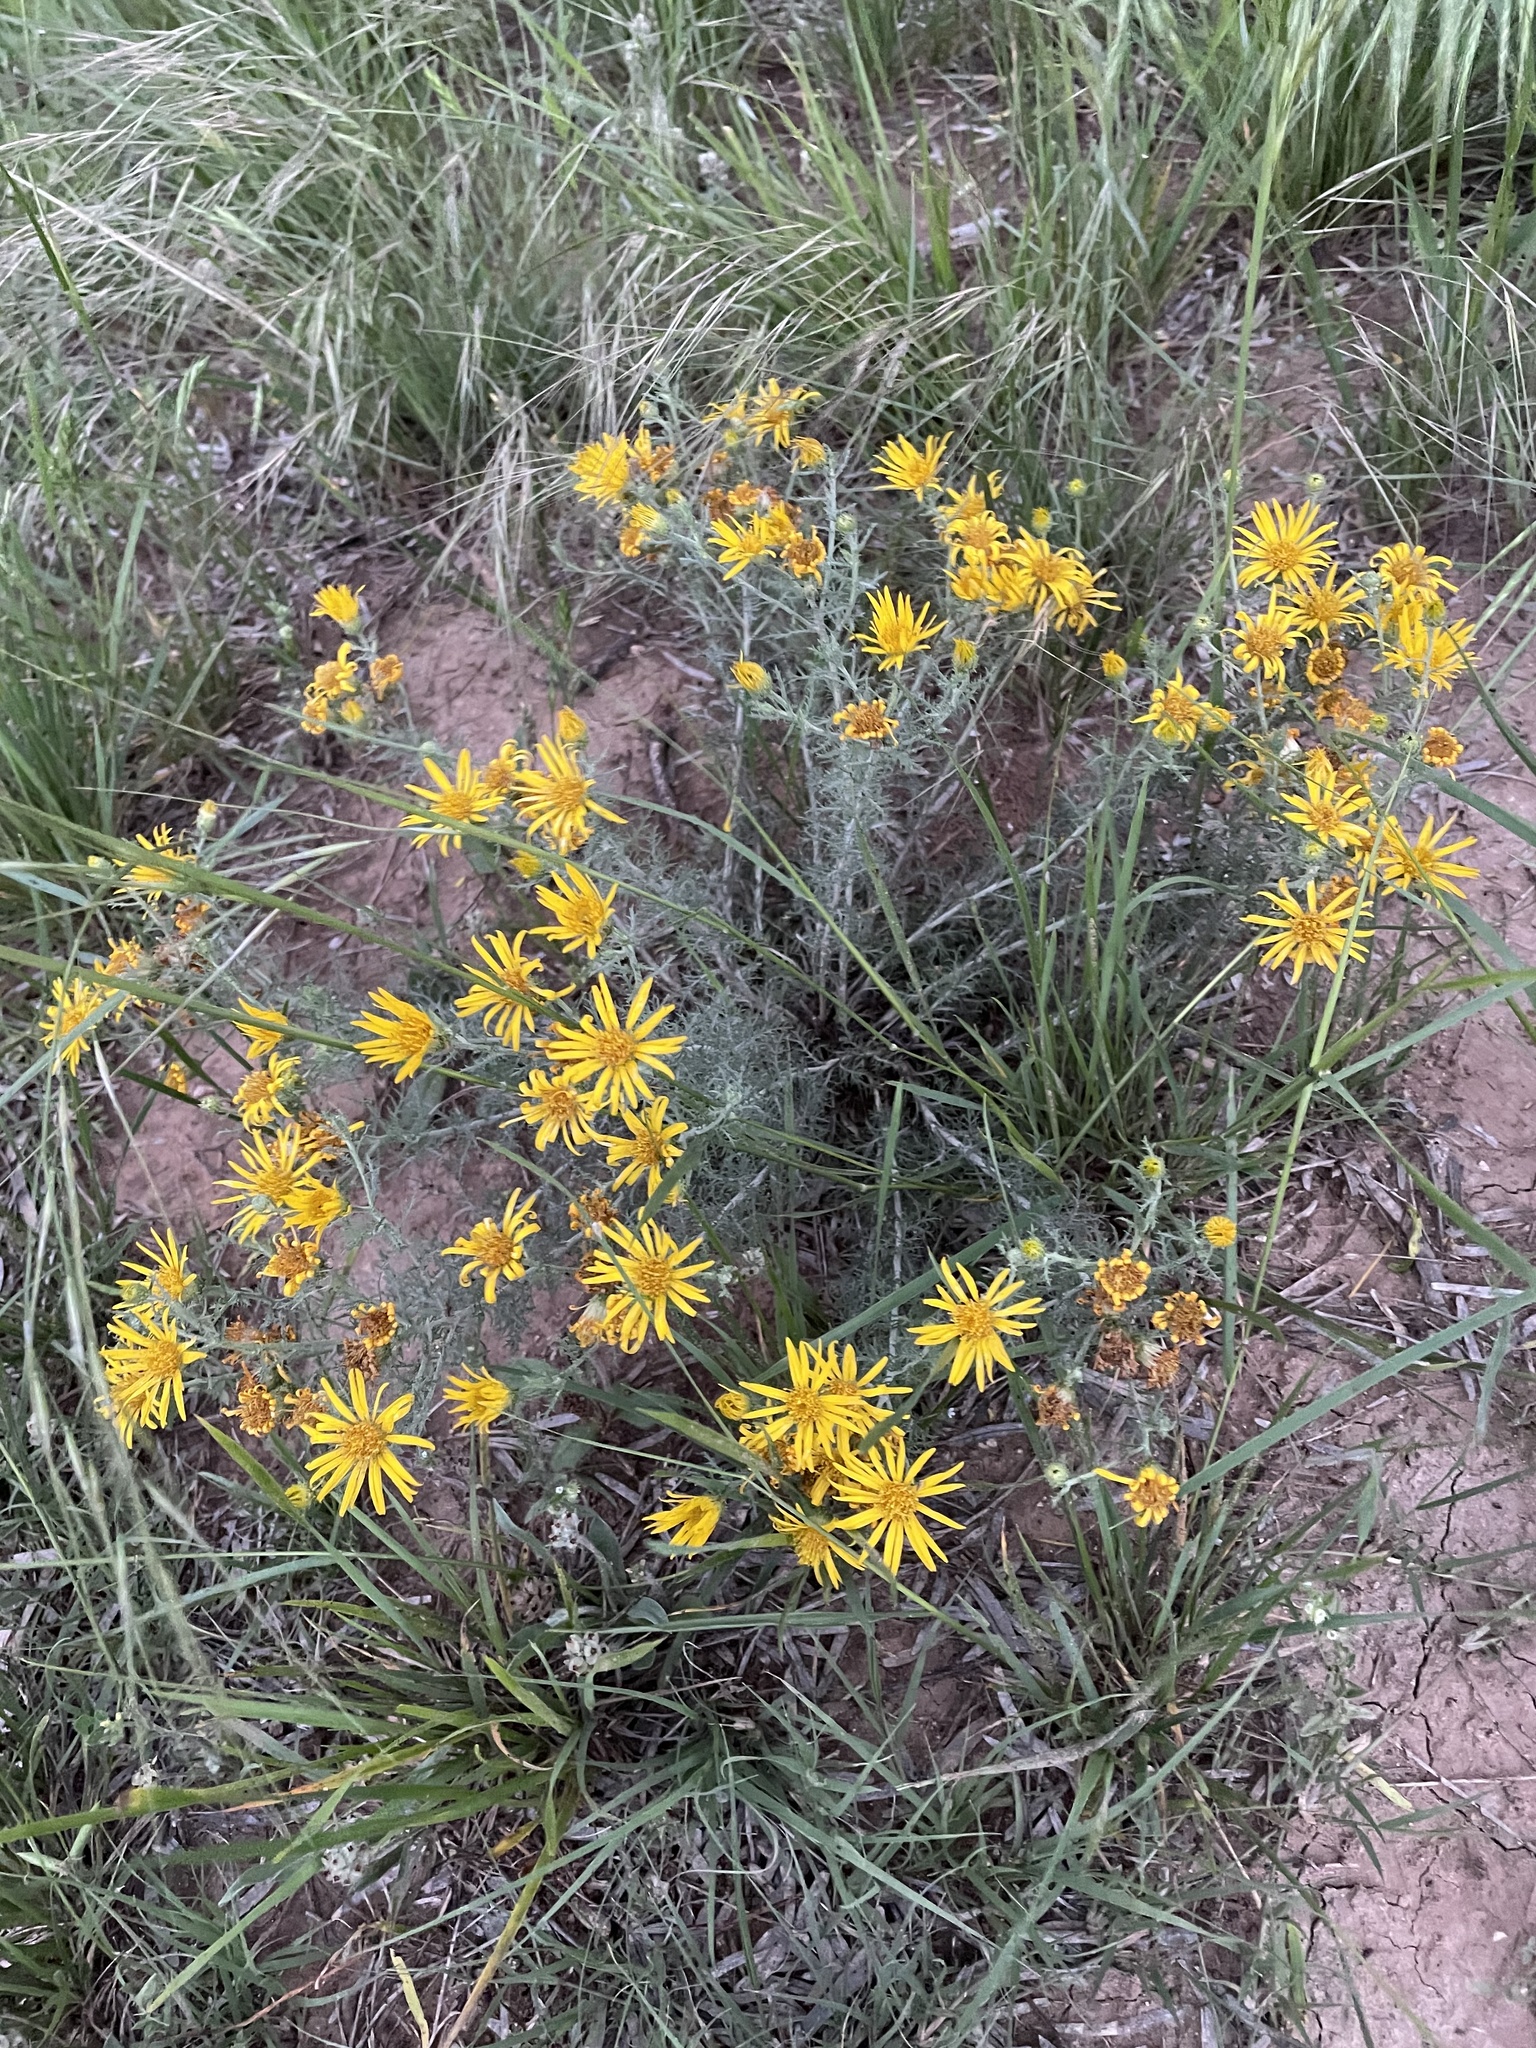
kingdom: Plantae
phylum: Tracheophyta
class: Magnoliopsida
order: Asterales
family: Asteraceae
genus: Xanthisma
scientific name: Xanthisma spinulosum
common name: Spiny goldenweed
